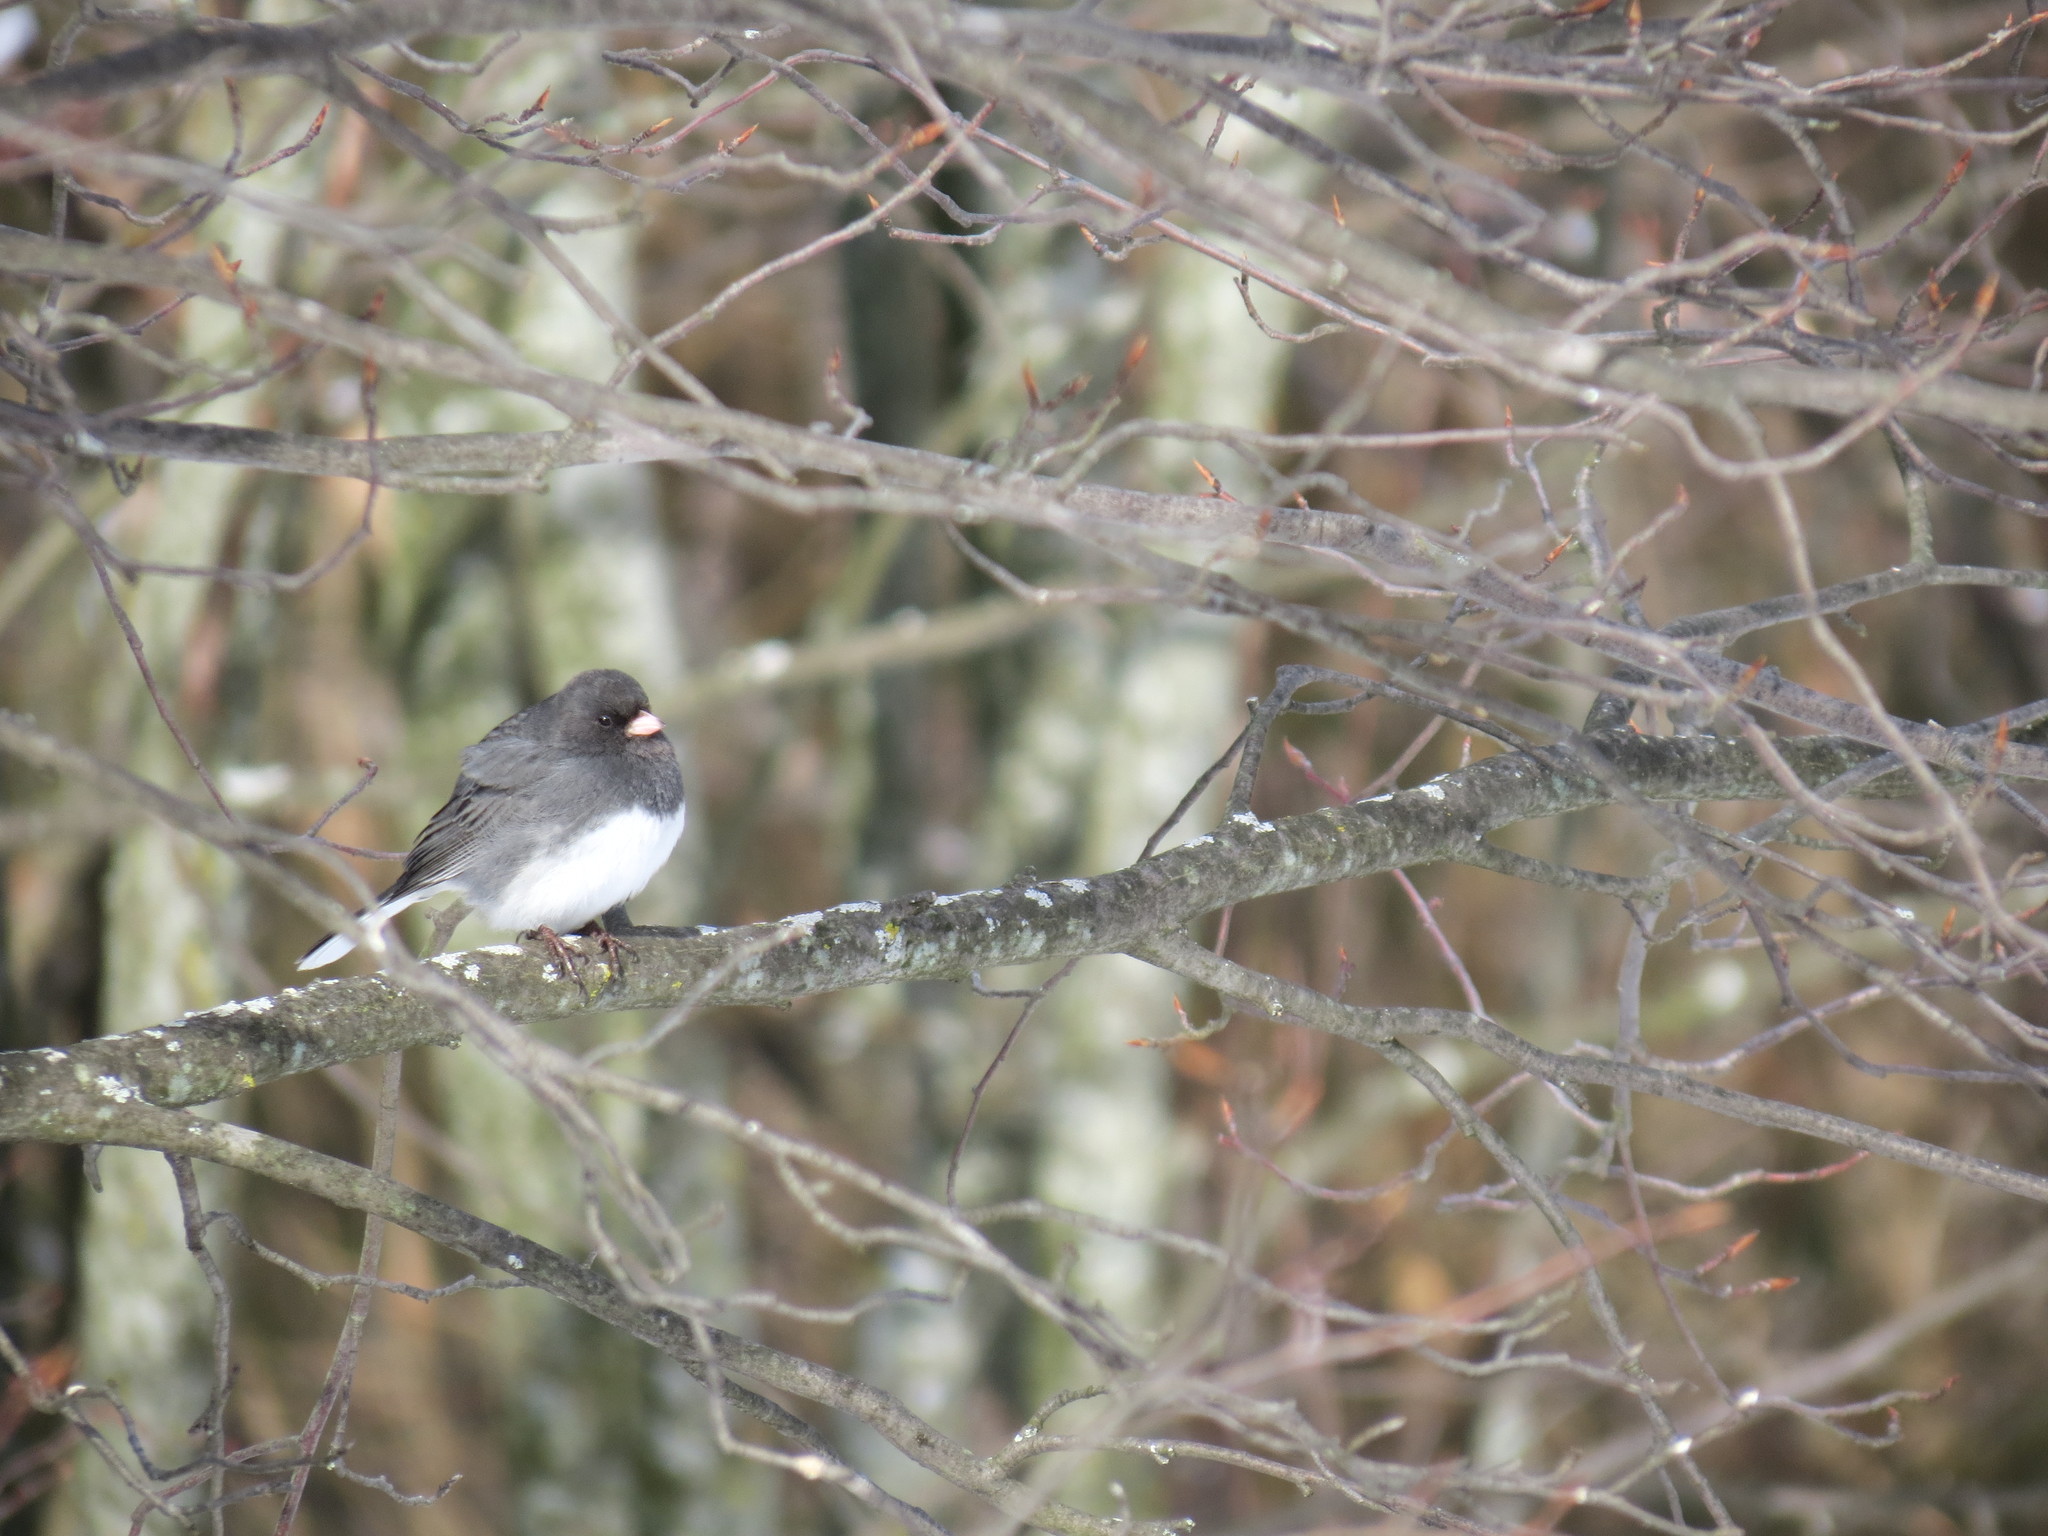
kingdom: Animalia
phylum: Chordata
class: Aves
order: Passeriformes
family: Passerellidae
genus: Junco
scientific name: Junco hyemalis
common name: Dark-eyed junco
